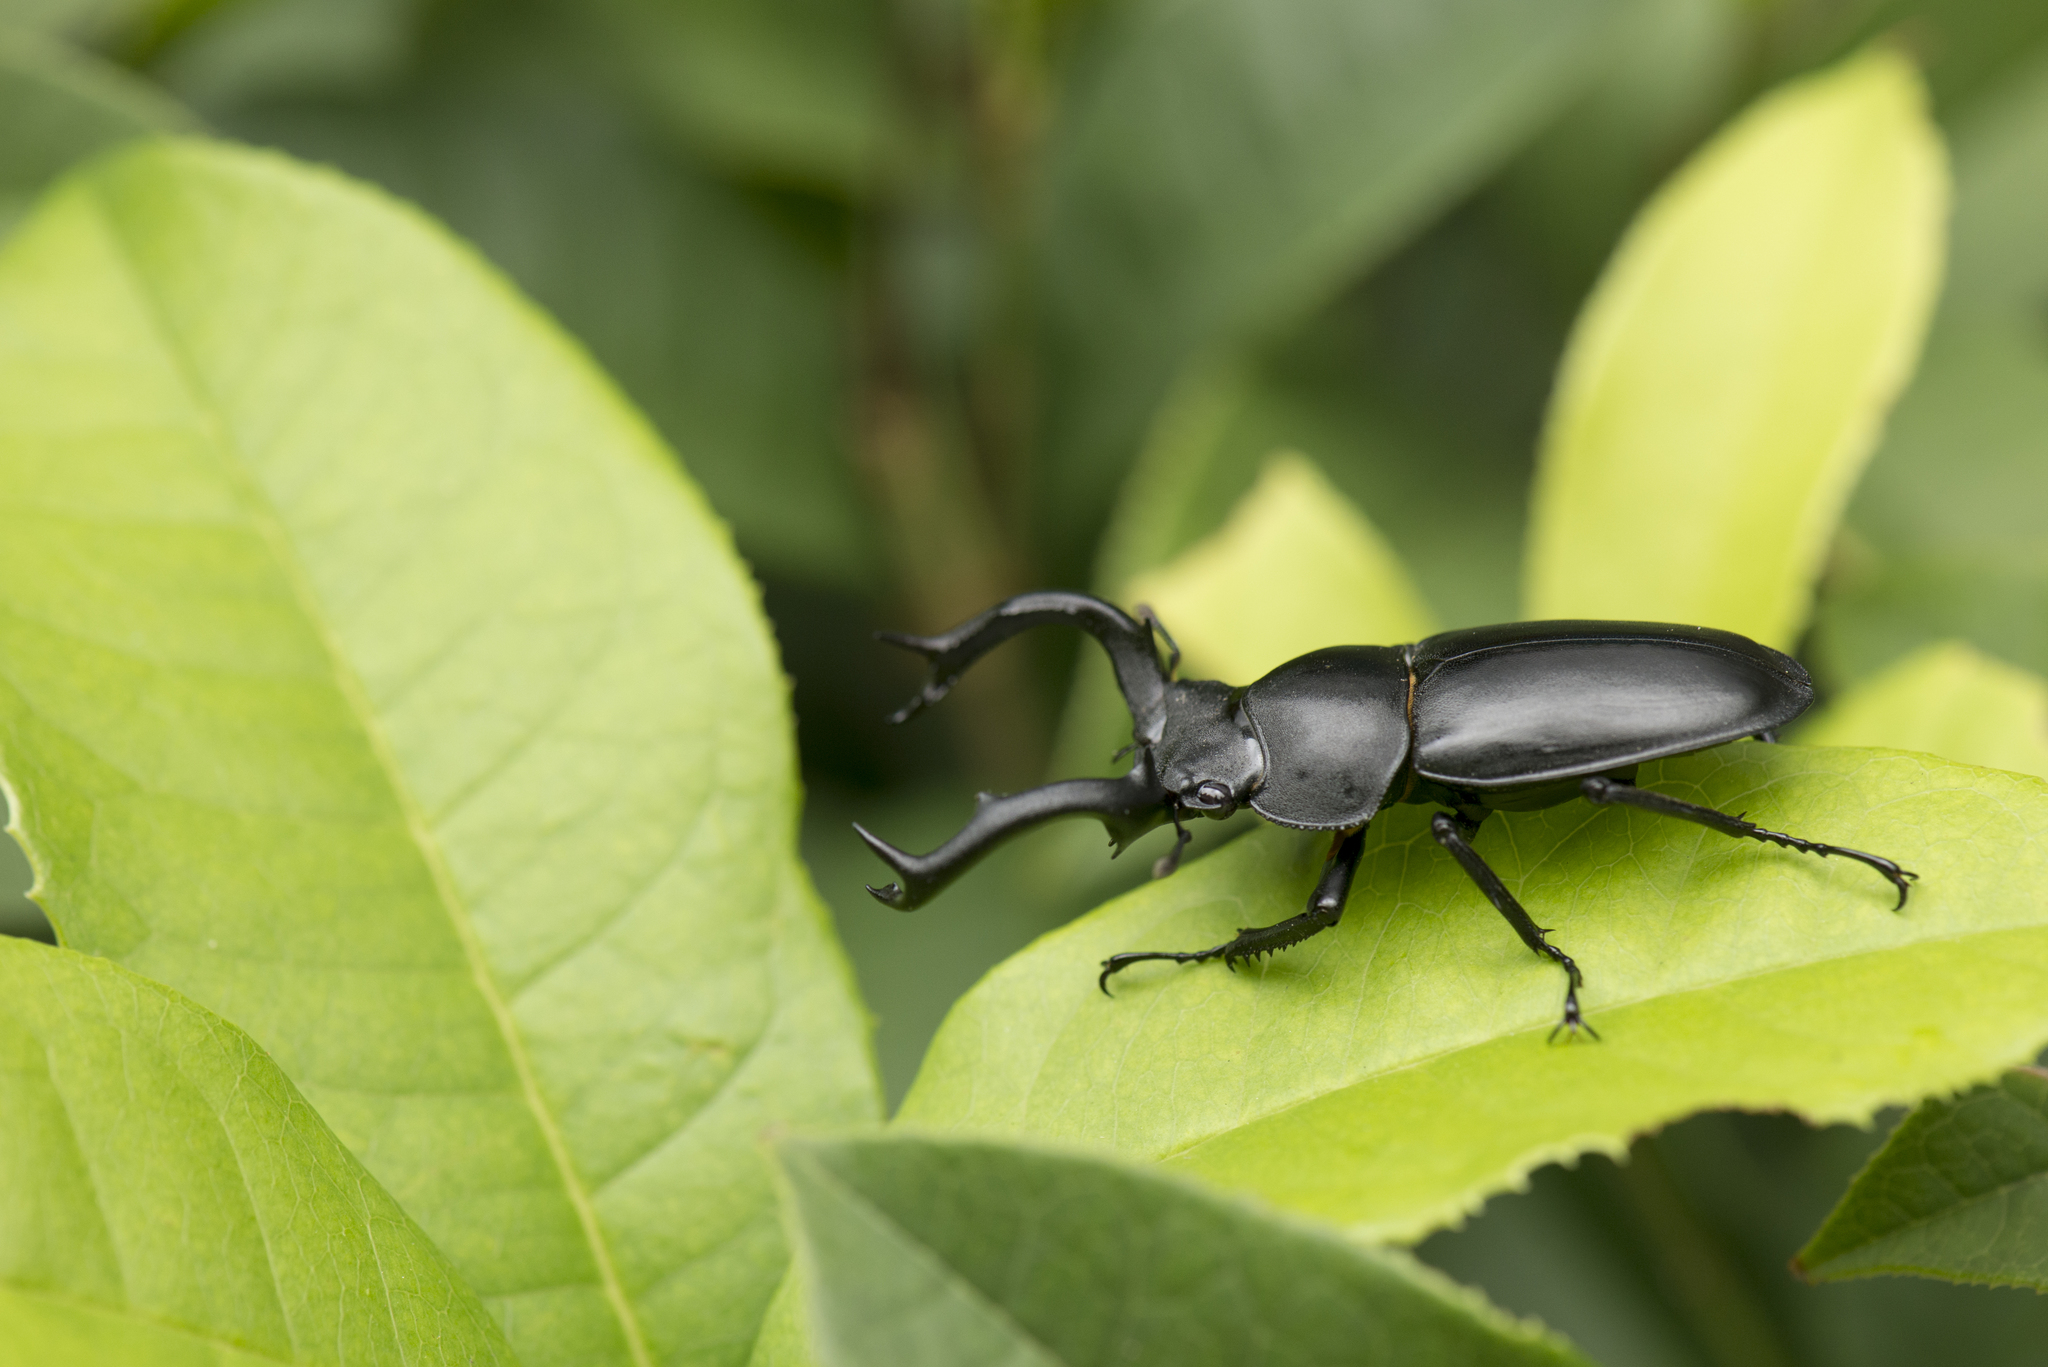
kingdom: Animalia
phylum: Arthropoda
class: Insecta
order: Coleoptera
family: Lucanidae
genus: Rhaetulus
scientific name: Rhaetulus crenatus
